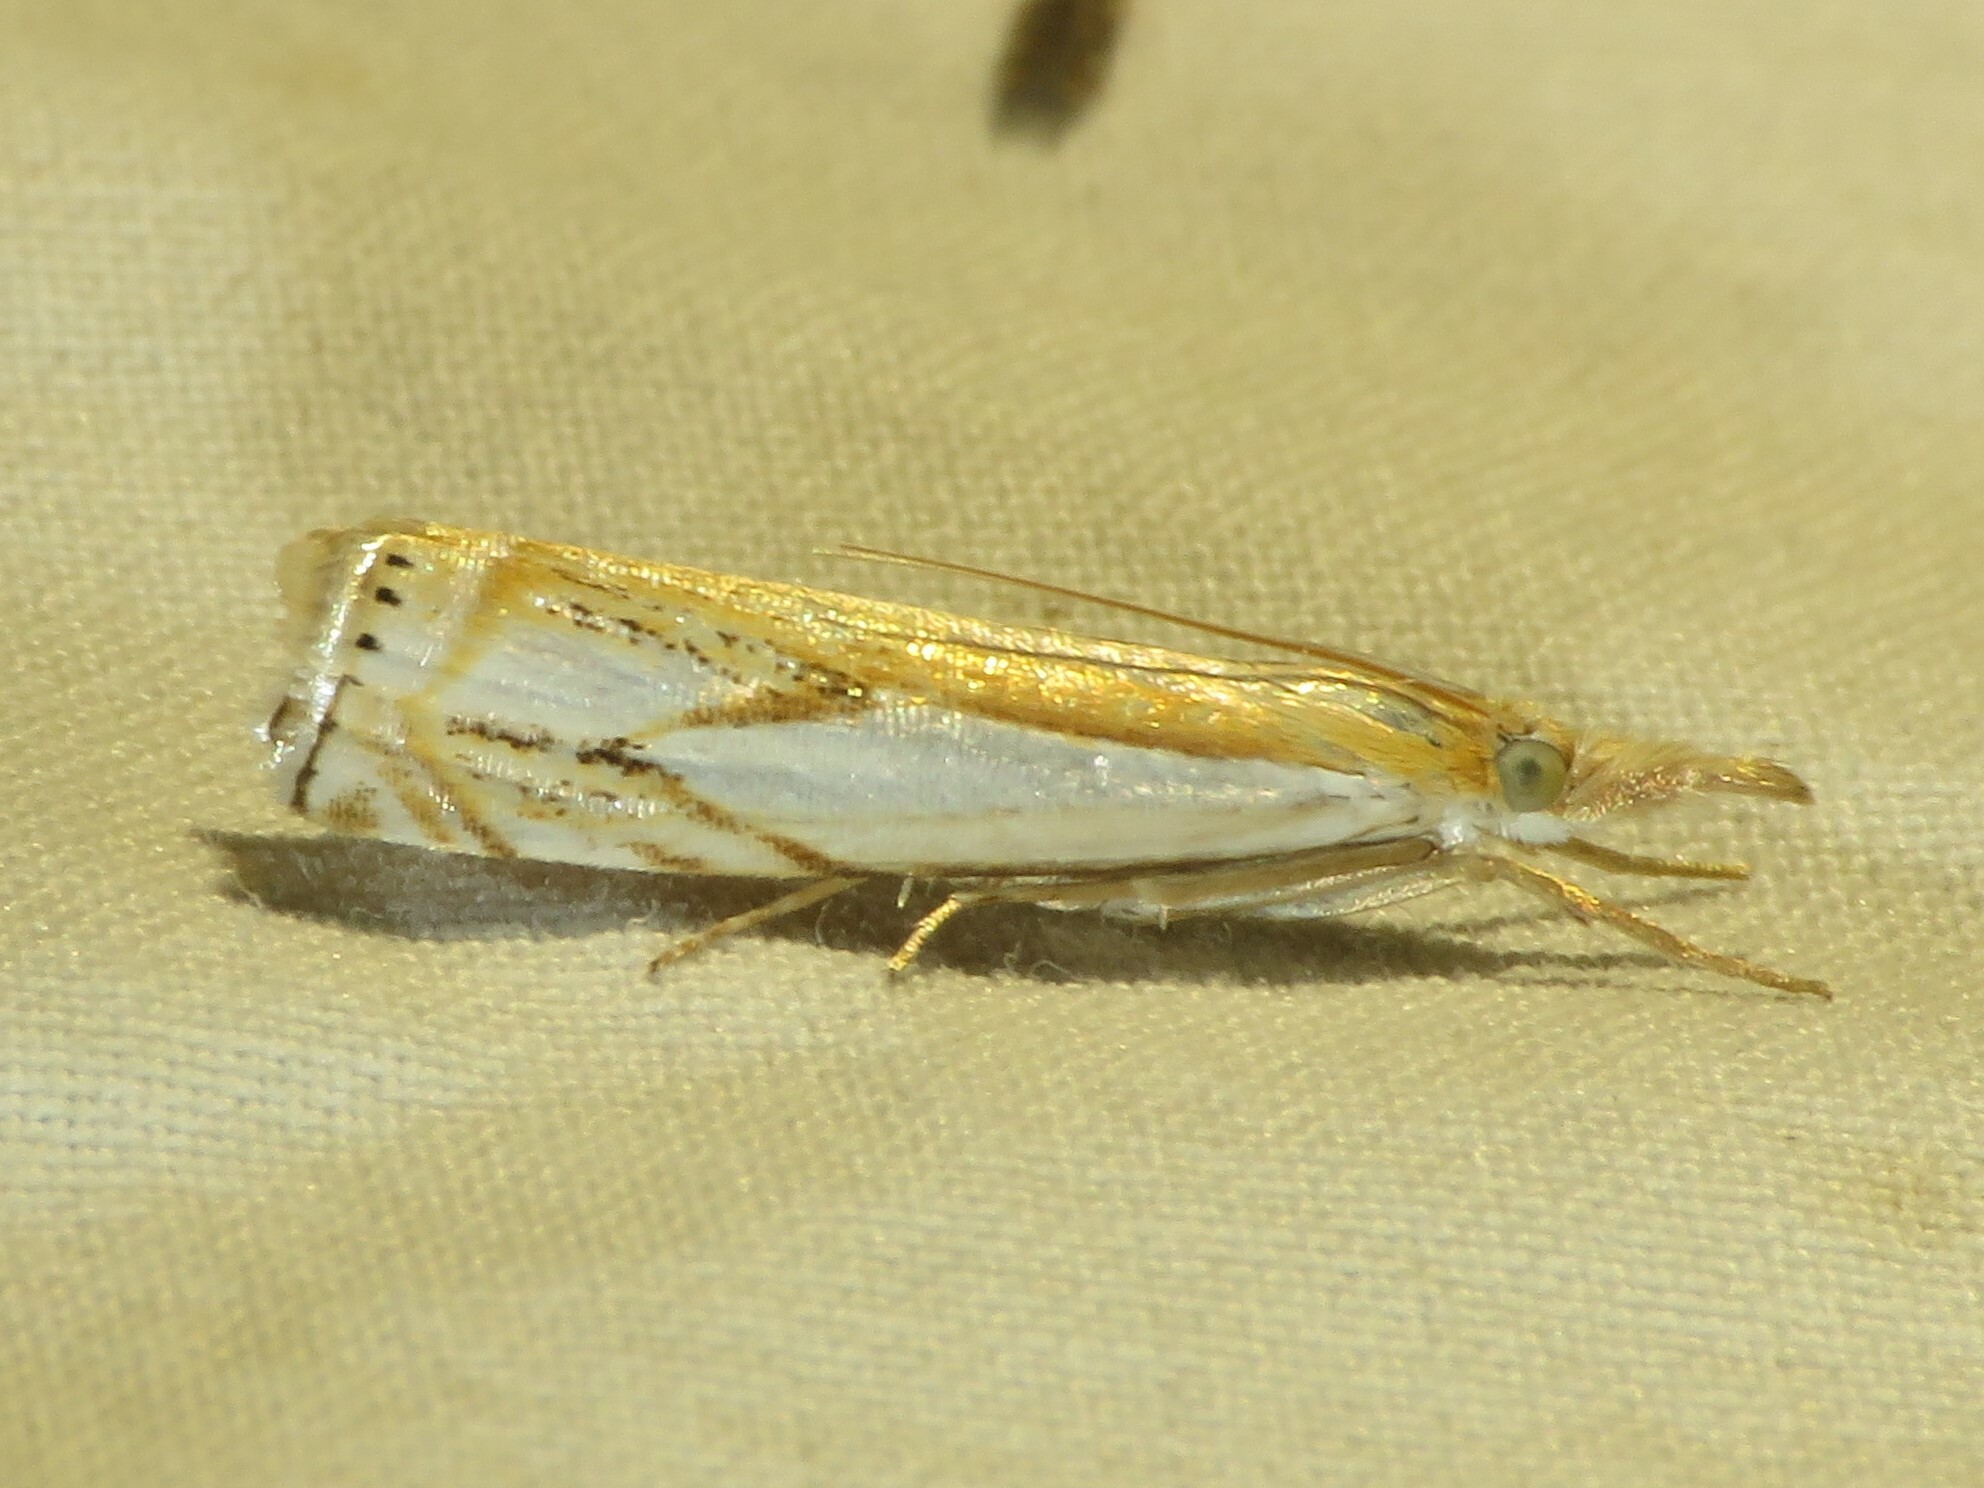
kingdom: Animalia
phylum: Arthropoda
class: Insecta
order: Lepidoptera
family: Crambidae
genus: Crambus
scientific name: Crambus agitatellus
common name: Double-banded grass-veneer
